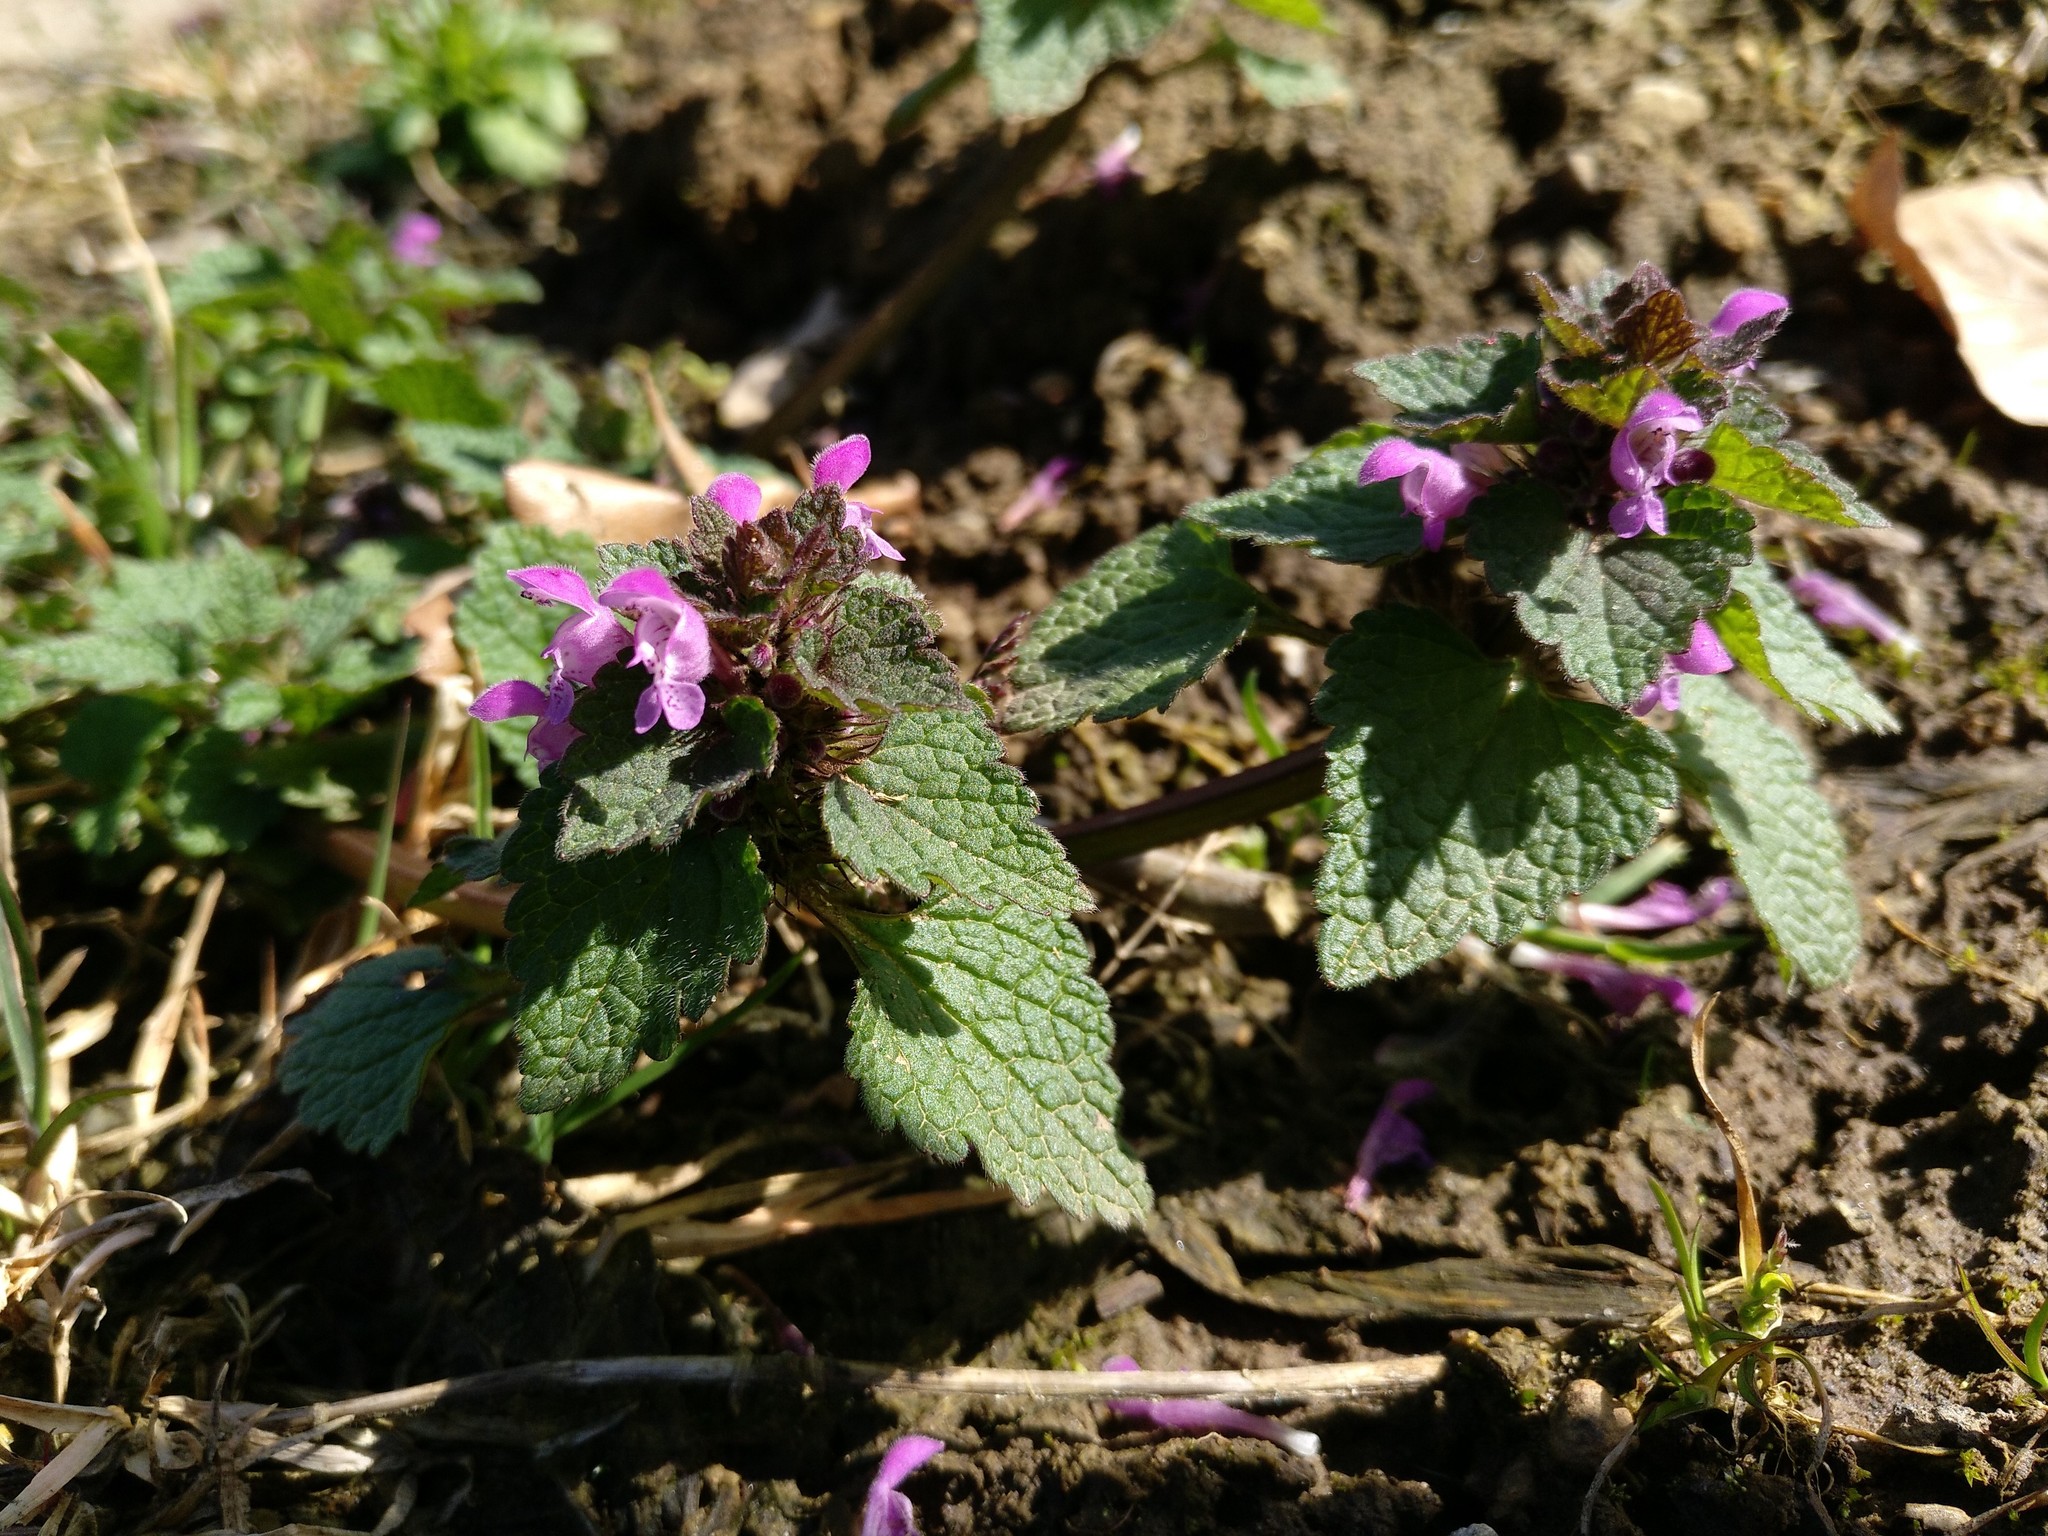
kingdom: Plantae
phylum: Tracheophyta
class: Magnoliopsida
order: Lamiales
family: Lamiaceae
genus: Lamium
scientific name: Lamium purpureum
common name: Red dead-nettle
